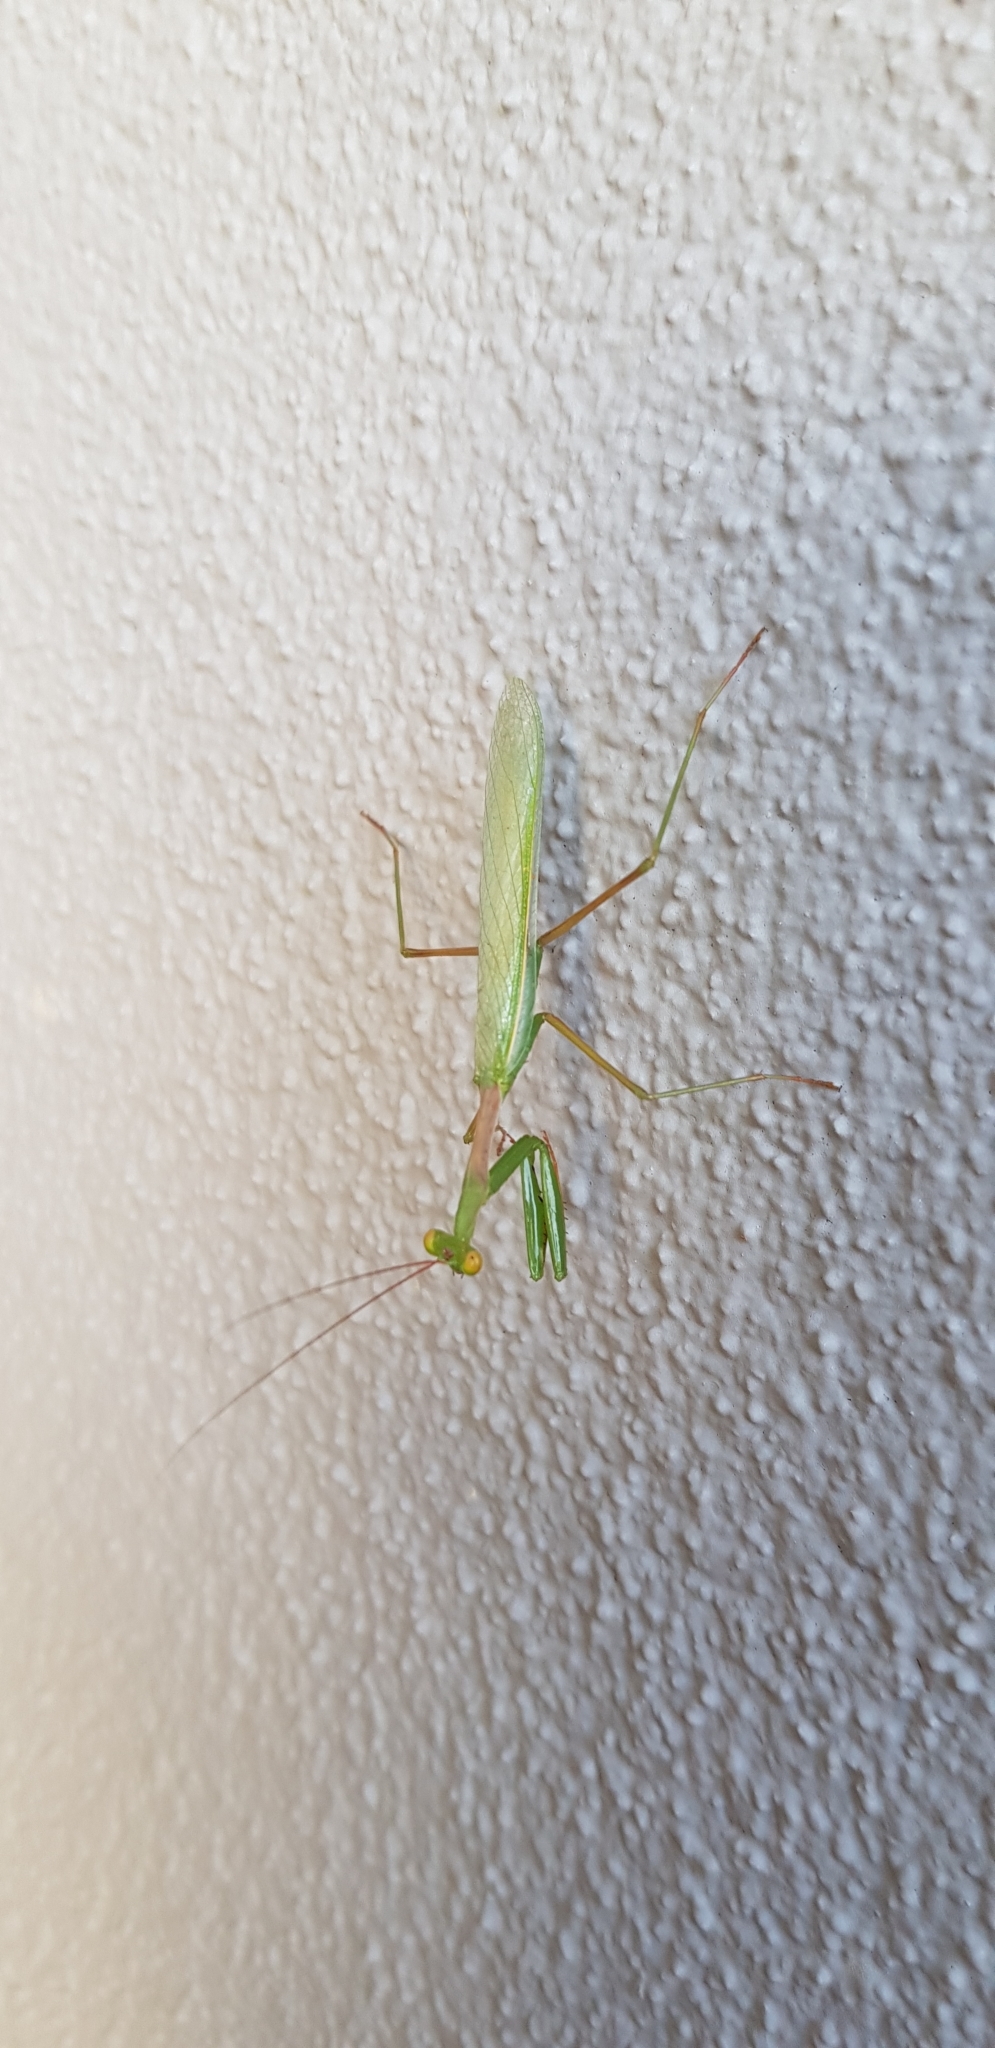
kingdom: Animalia
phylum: Arthropoda
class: Insecta
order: Mantodea
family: Miomantidae
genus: Miomantis
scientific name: Miomantis caffra
